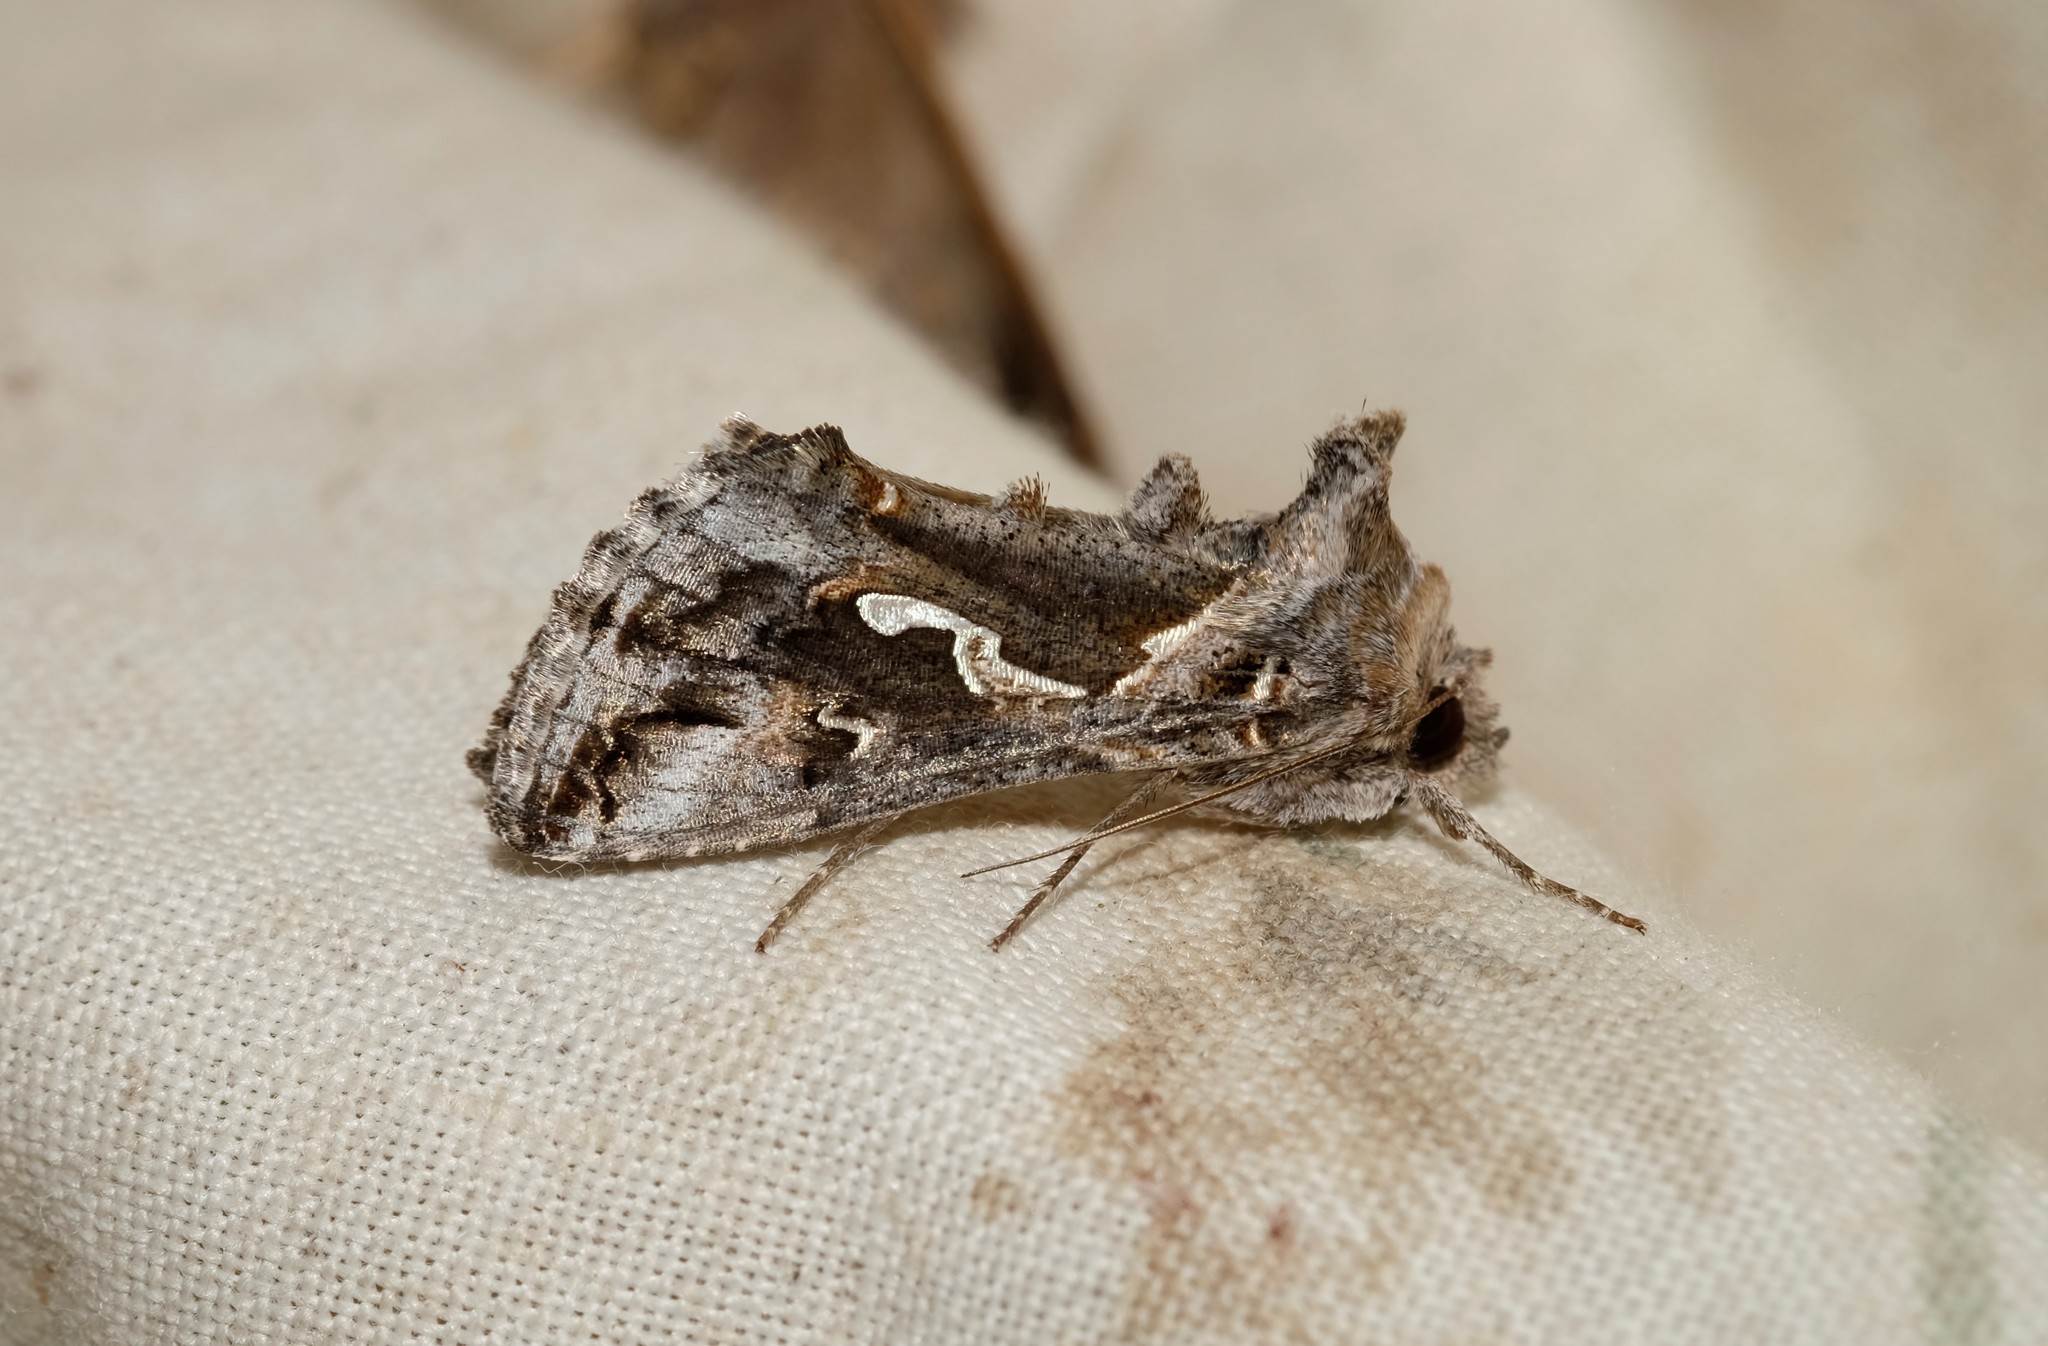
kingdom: Animalia
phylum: Arthropoda
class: Insecta
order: Lepidoptera
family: Noctuidae
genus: Chrysodeixis
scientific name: Chrysodeixis argentifera
